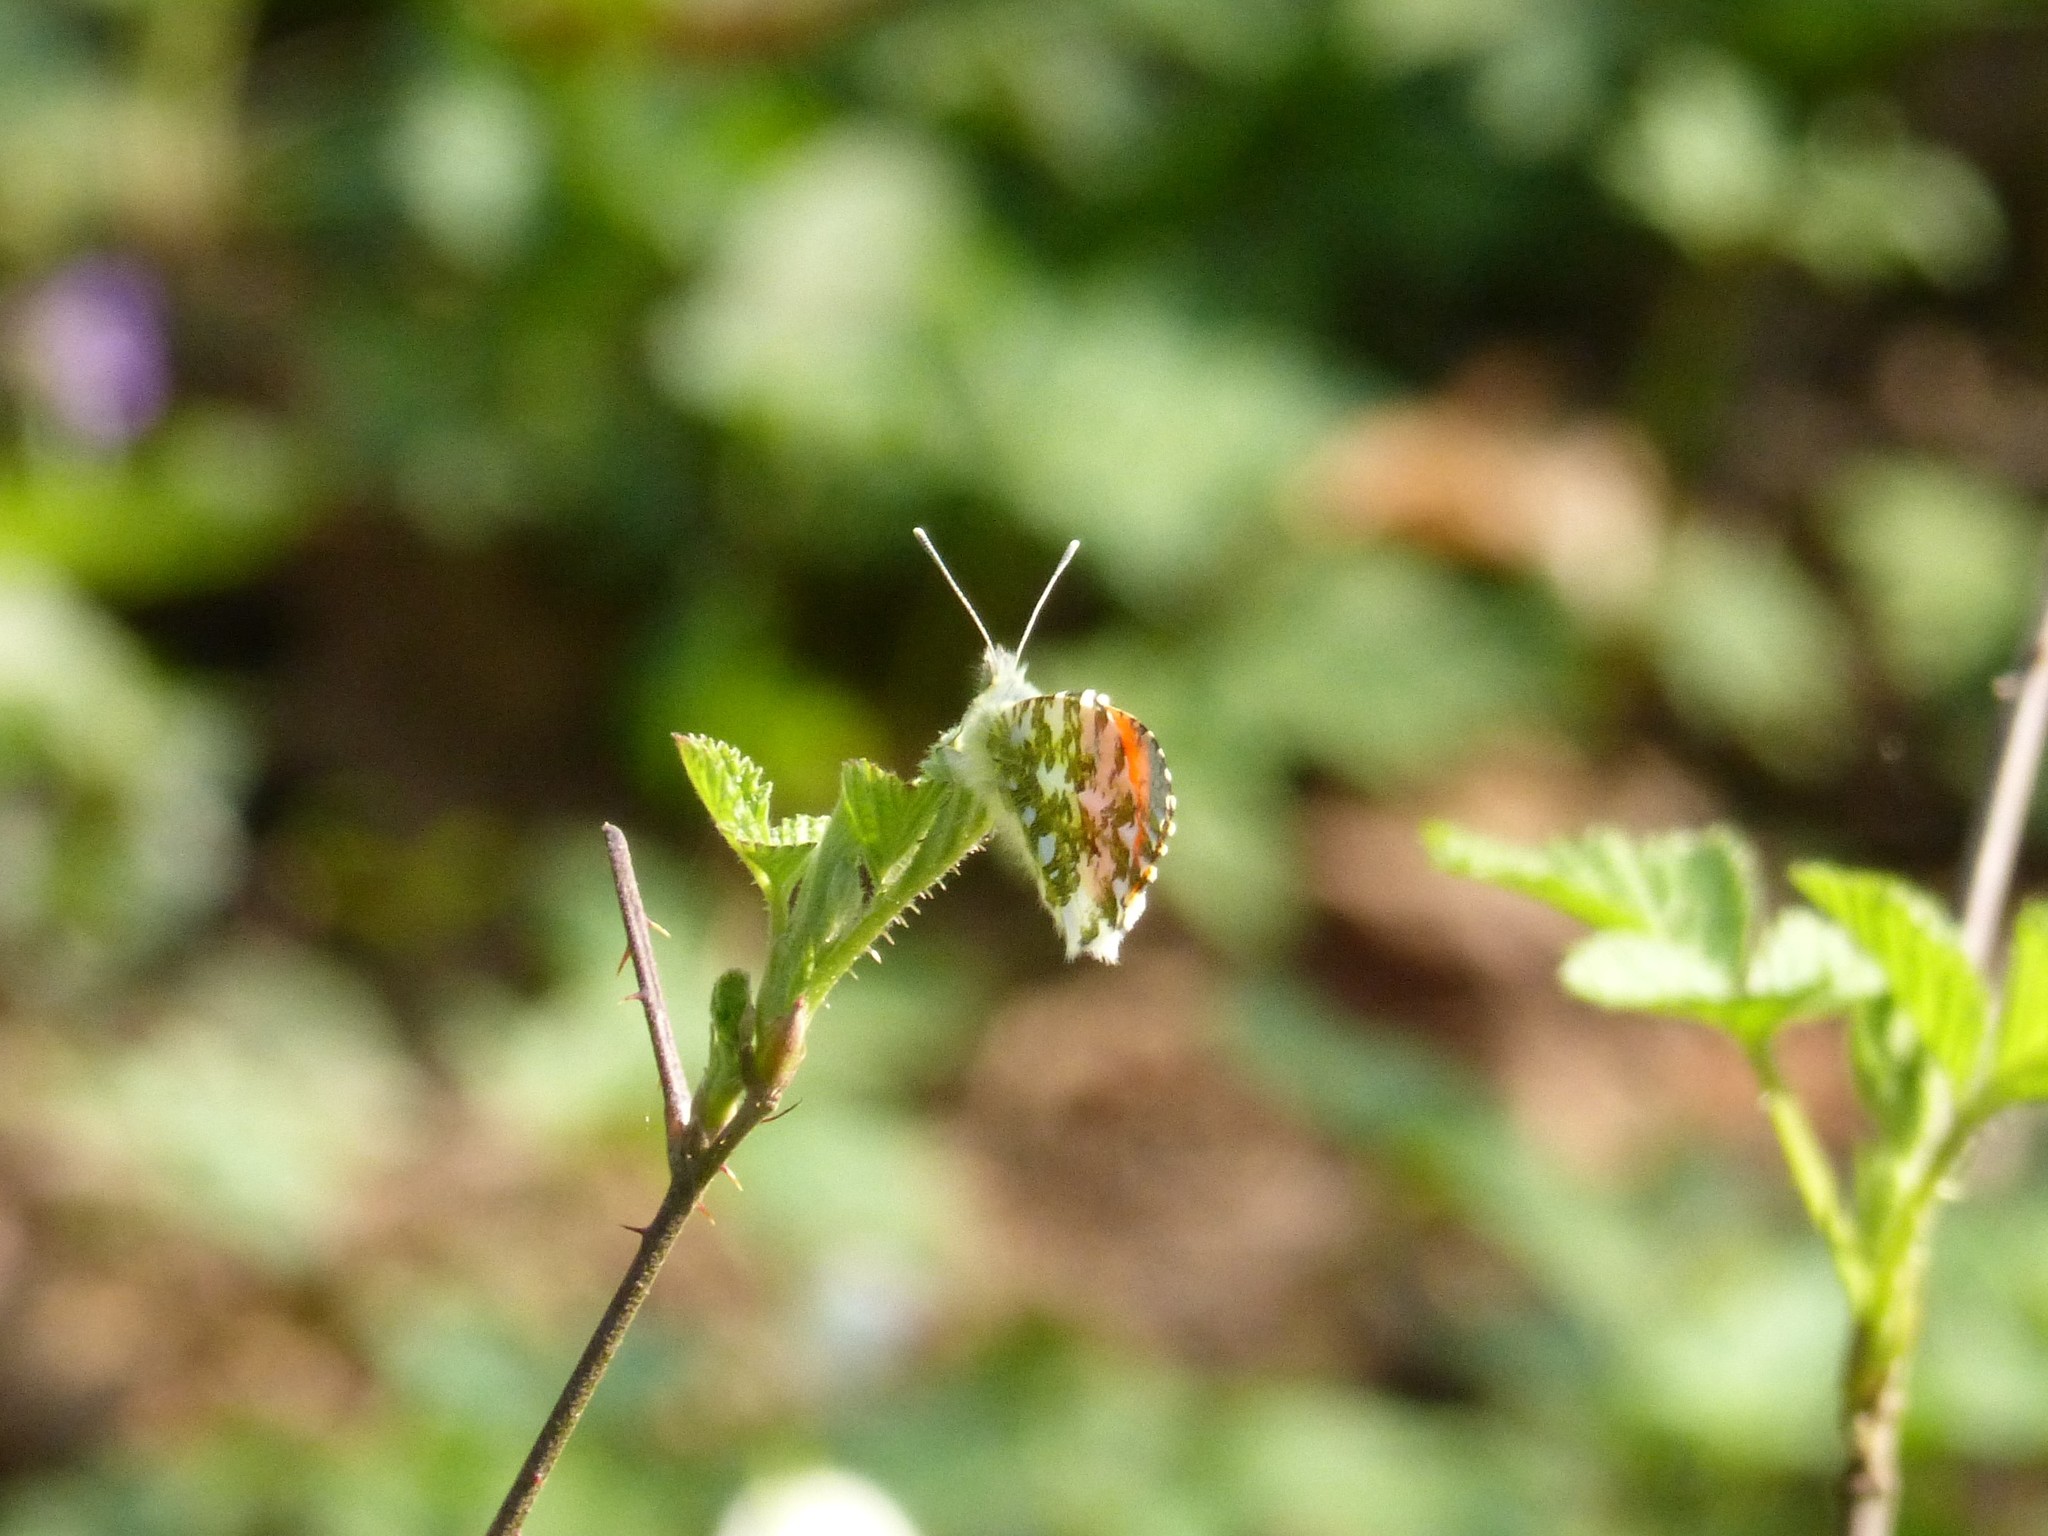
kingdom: Animalia
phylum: Arthropoda
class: Insecta
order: Lepidoptera
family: Pieridae
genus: Anthocharis
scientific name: Anthocharis cardamines
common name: Orange-tip
